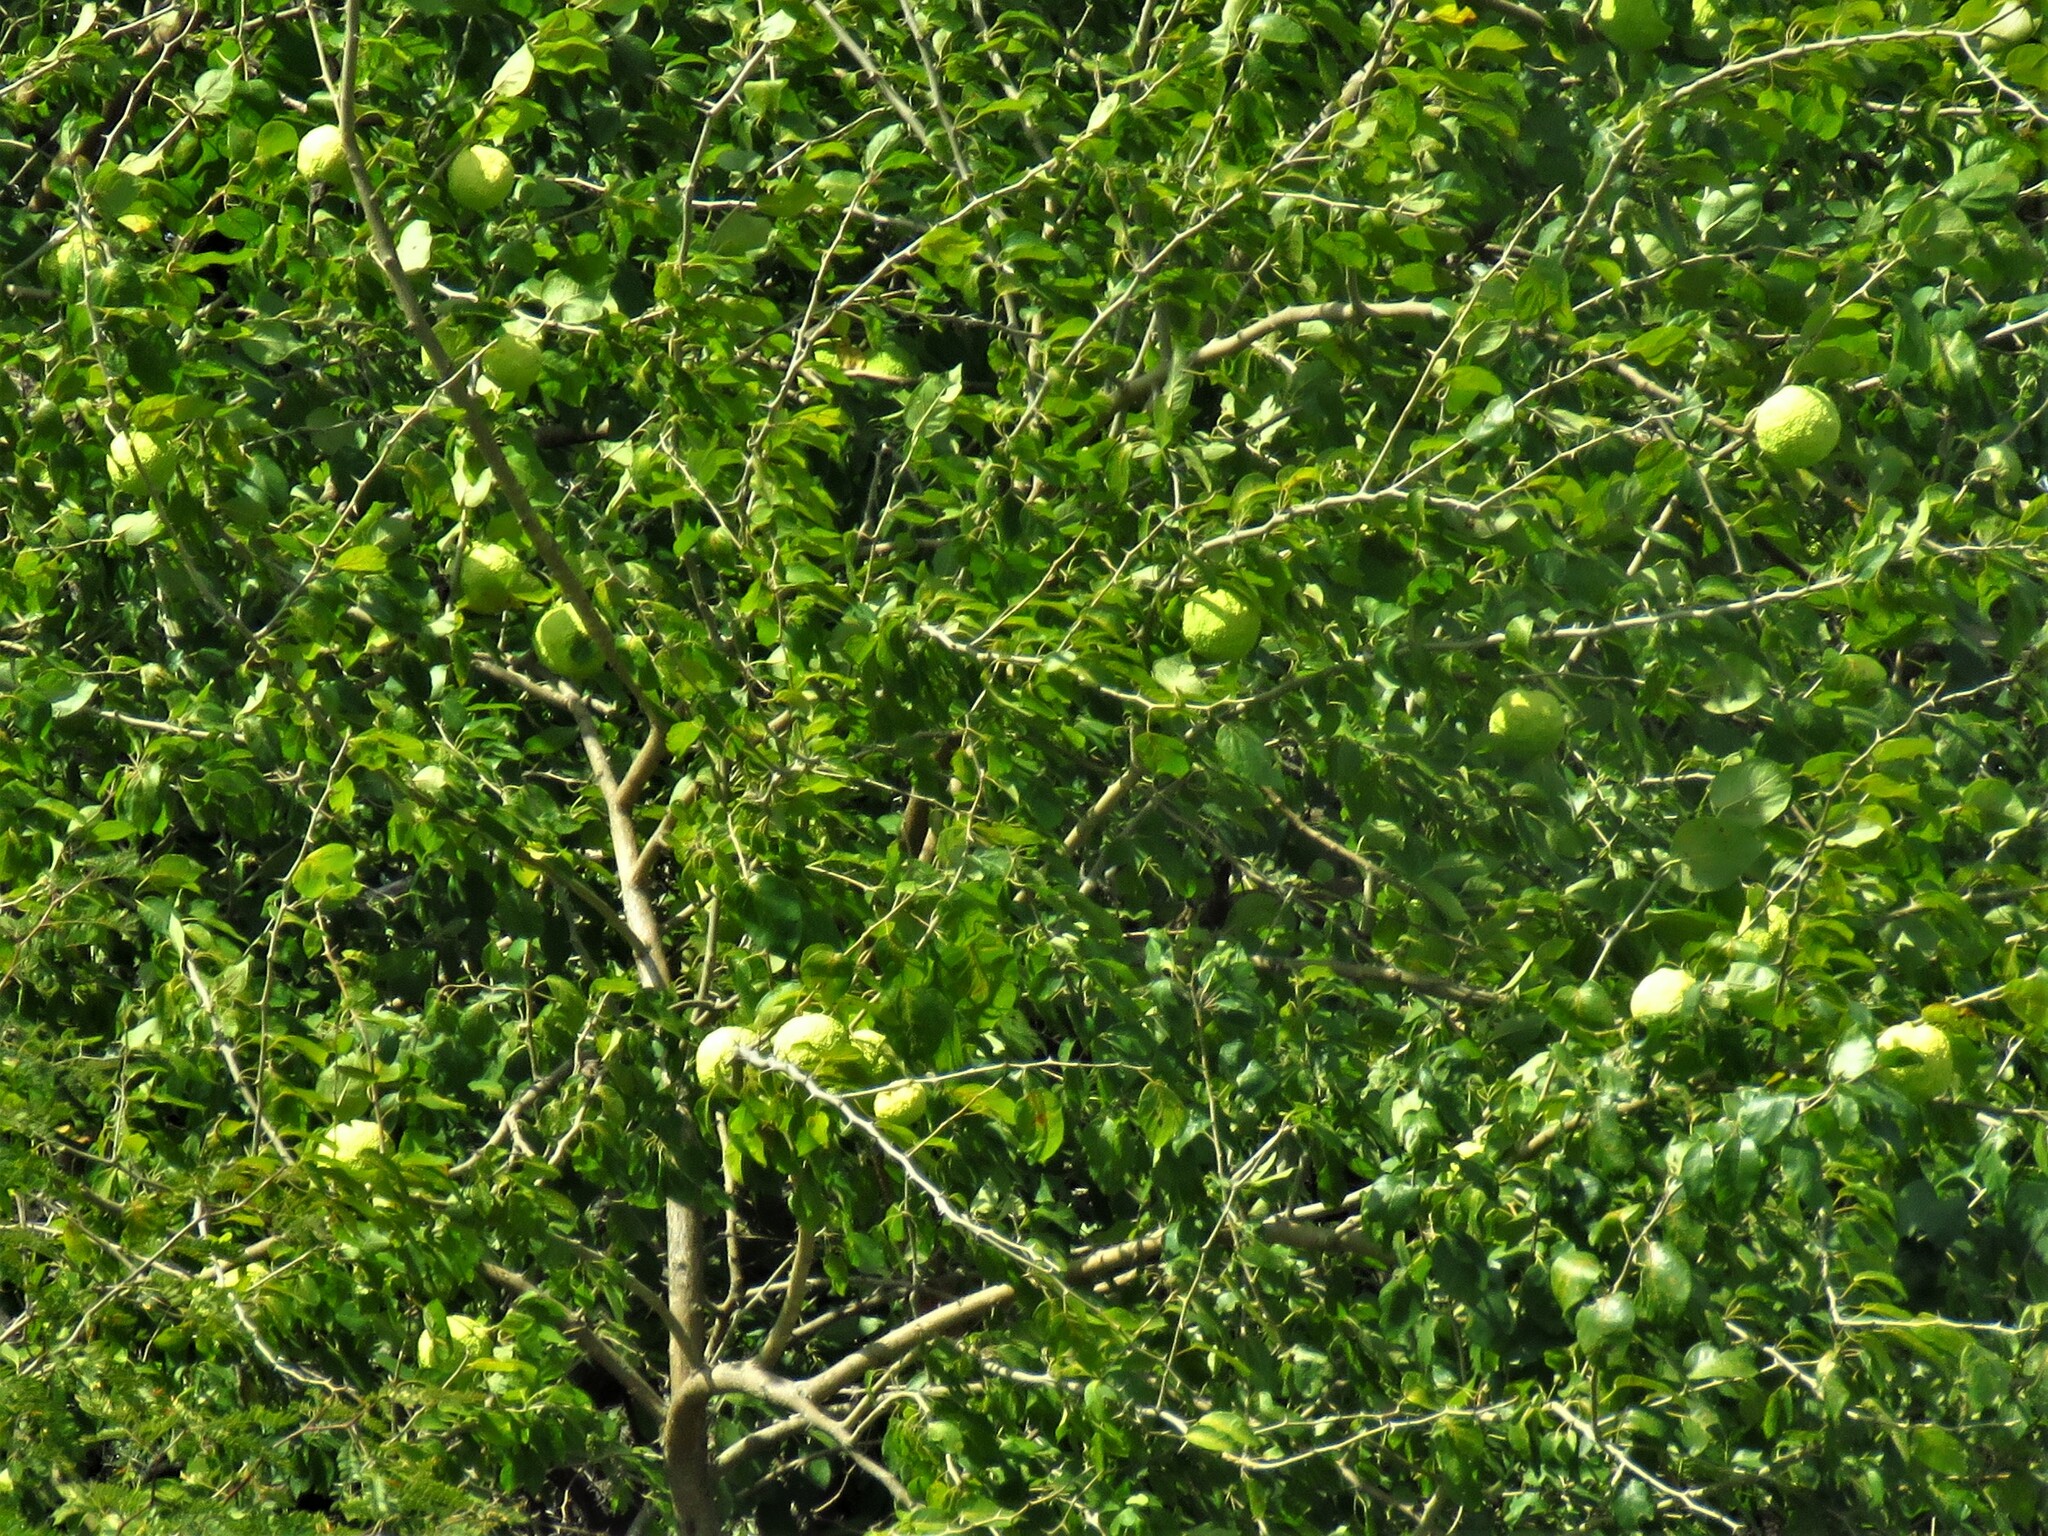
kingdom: Plantae
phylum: Tracheophyta
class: Magnoliopsida
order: Rosales
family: Moraceae
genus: Maclura
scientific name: Maclura pomifera
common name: Osage-orange
